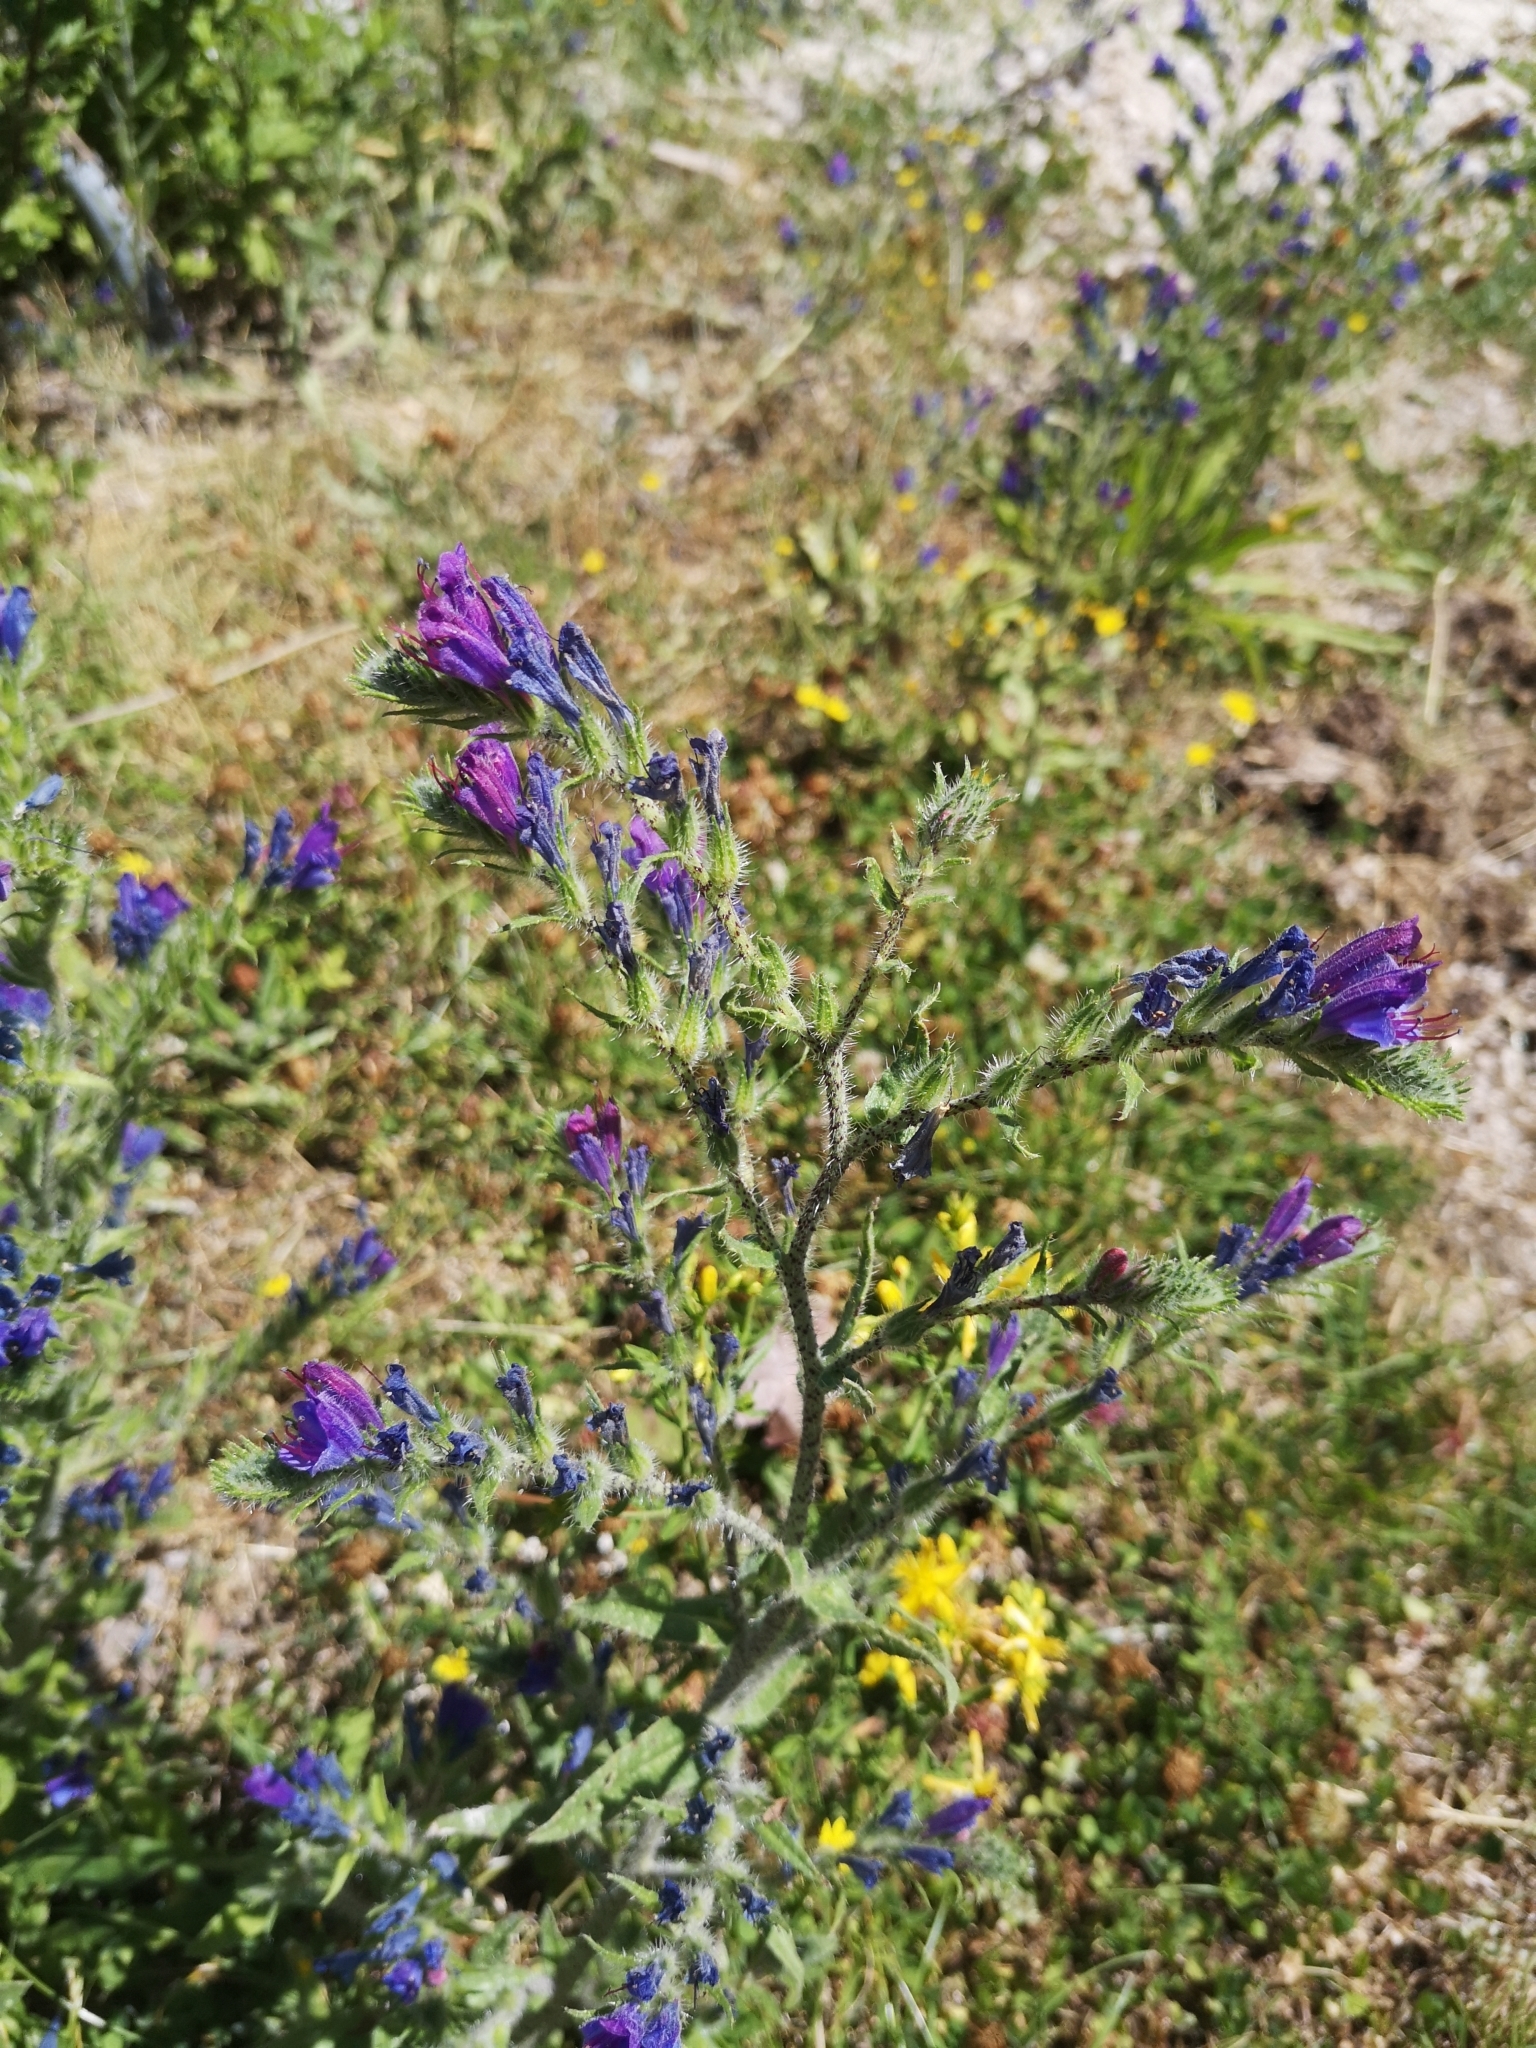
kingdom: Plantae
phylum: Tracheophyta
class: Magnoliopsida
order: Boraginales
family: Boraginaceae
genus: Echium
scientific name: Echium vulgare
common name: Common viper's bugloss
